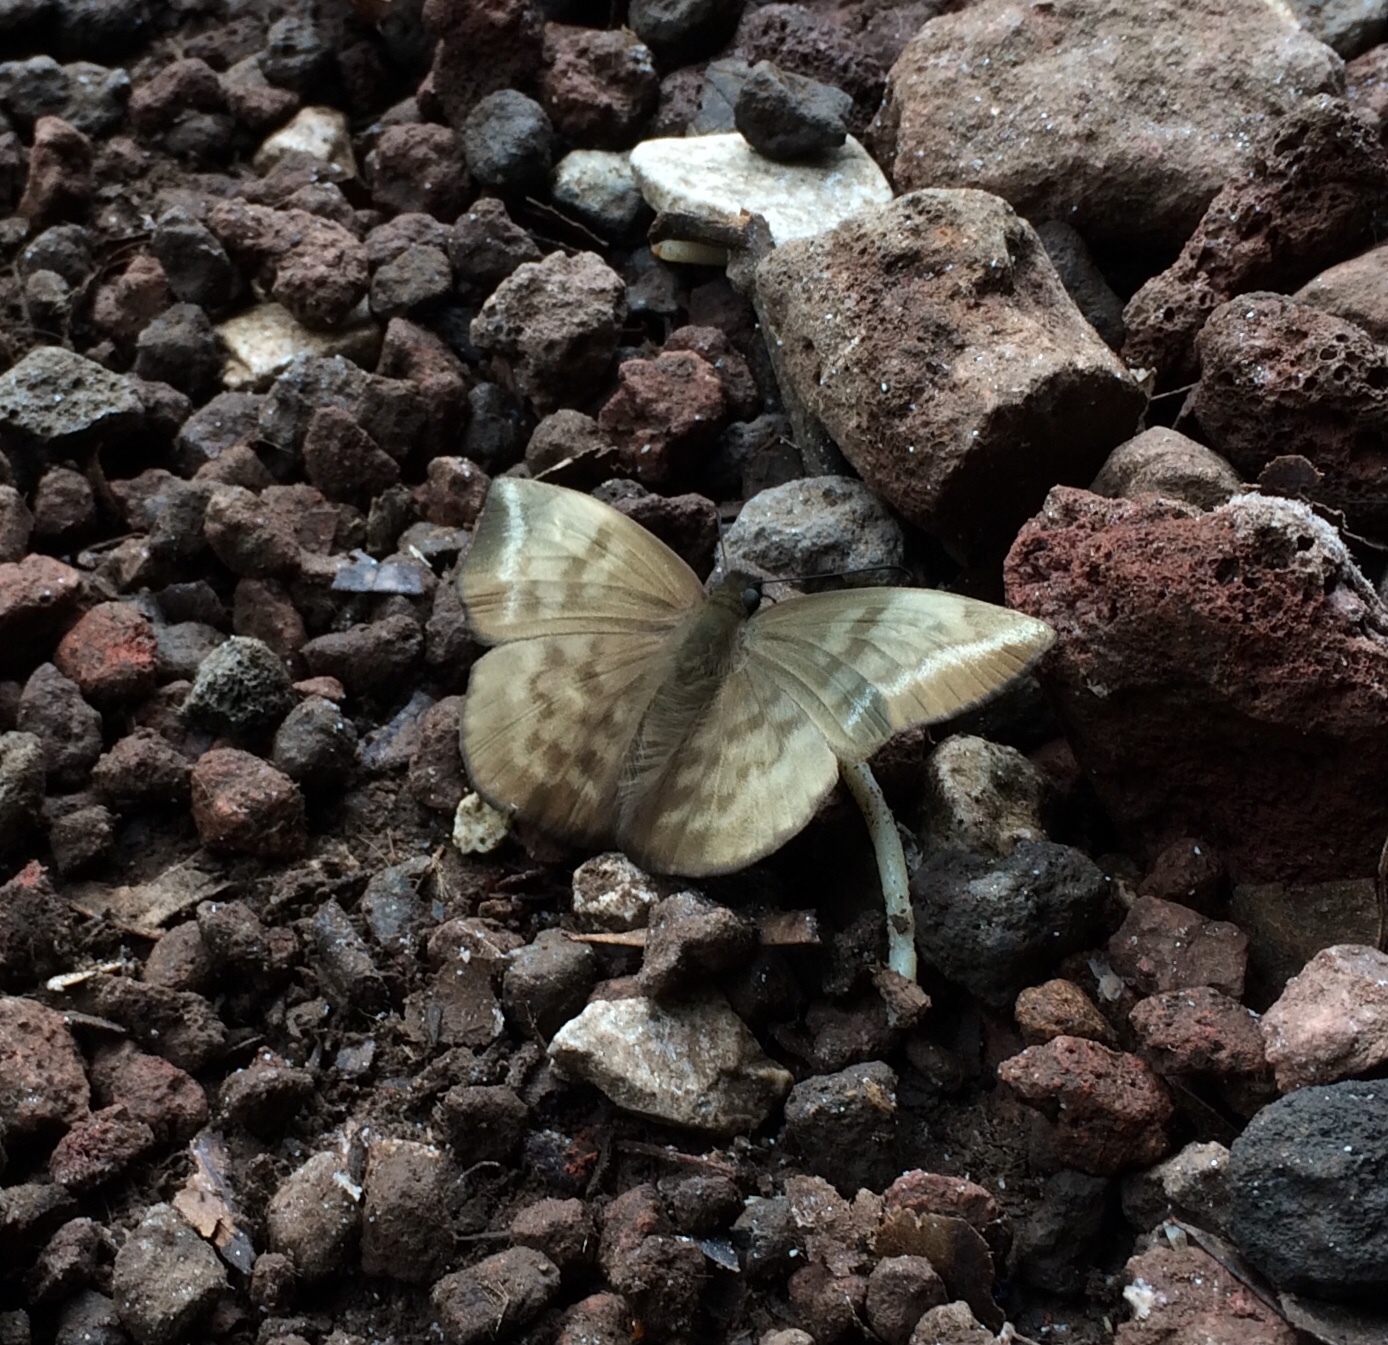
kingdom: Animalia
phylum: Arthropoda
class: Insecta
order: Lepidoptera
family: Hesperiidae
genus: Achlyodes
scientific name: Achlyodes pallida
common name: Pale sicklewing
